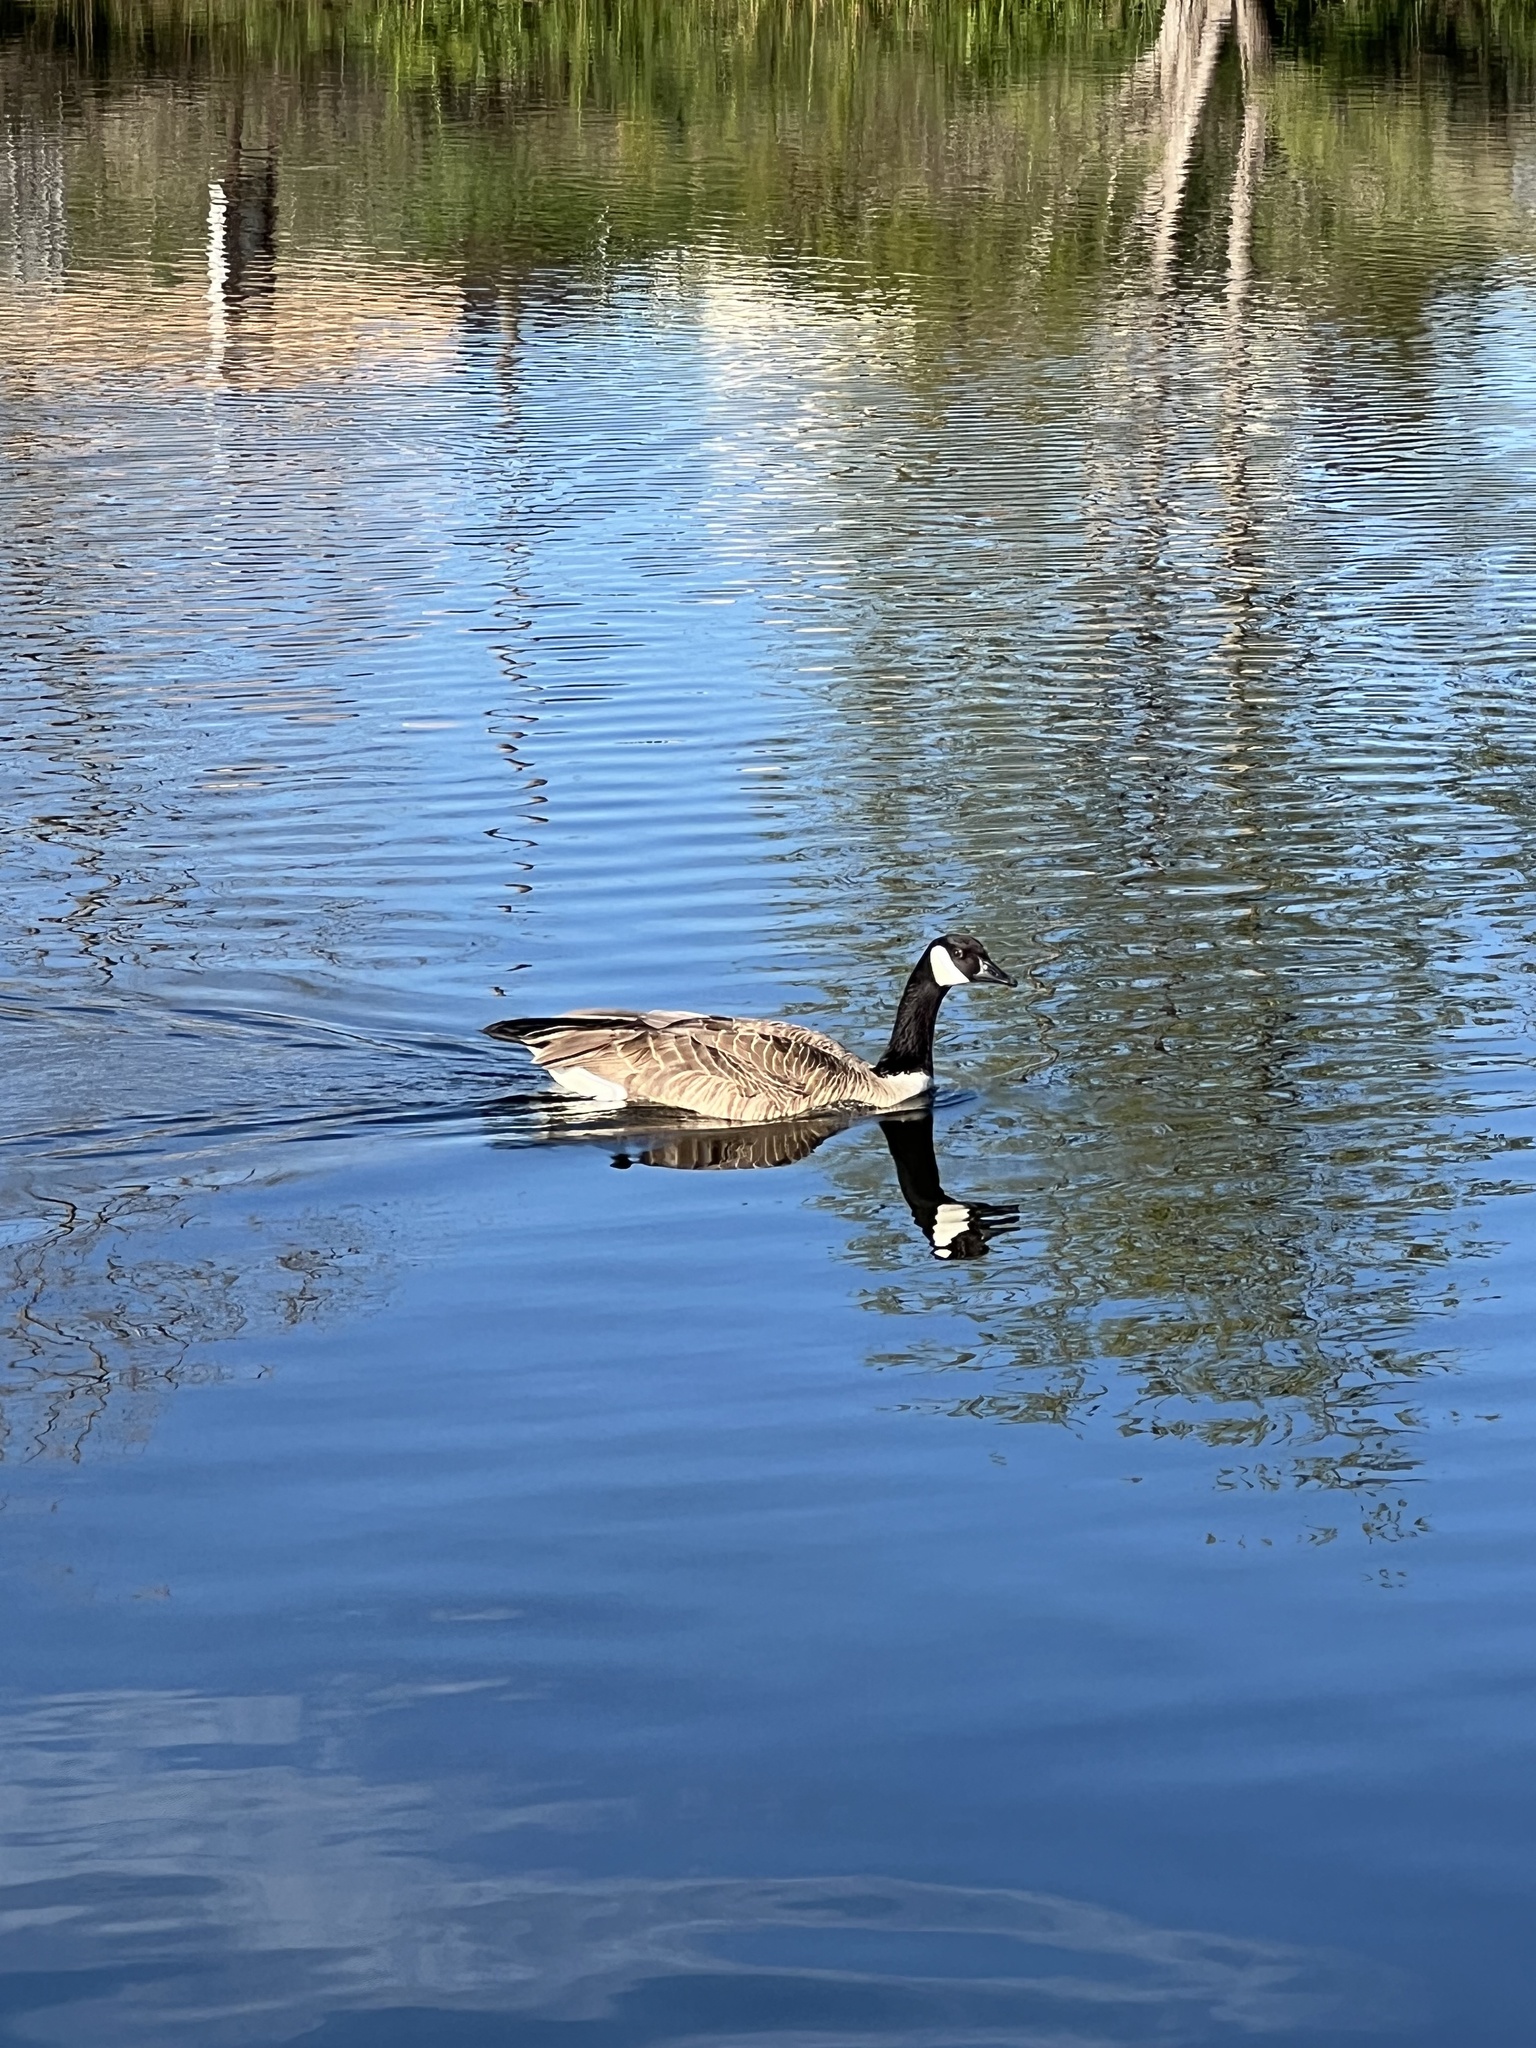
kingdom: Animalia
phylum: Chordata
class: Aves
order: Anseriformes
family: Anatidae
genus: Branta
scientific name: Branta canadensis
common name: Canada goose
